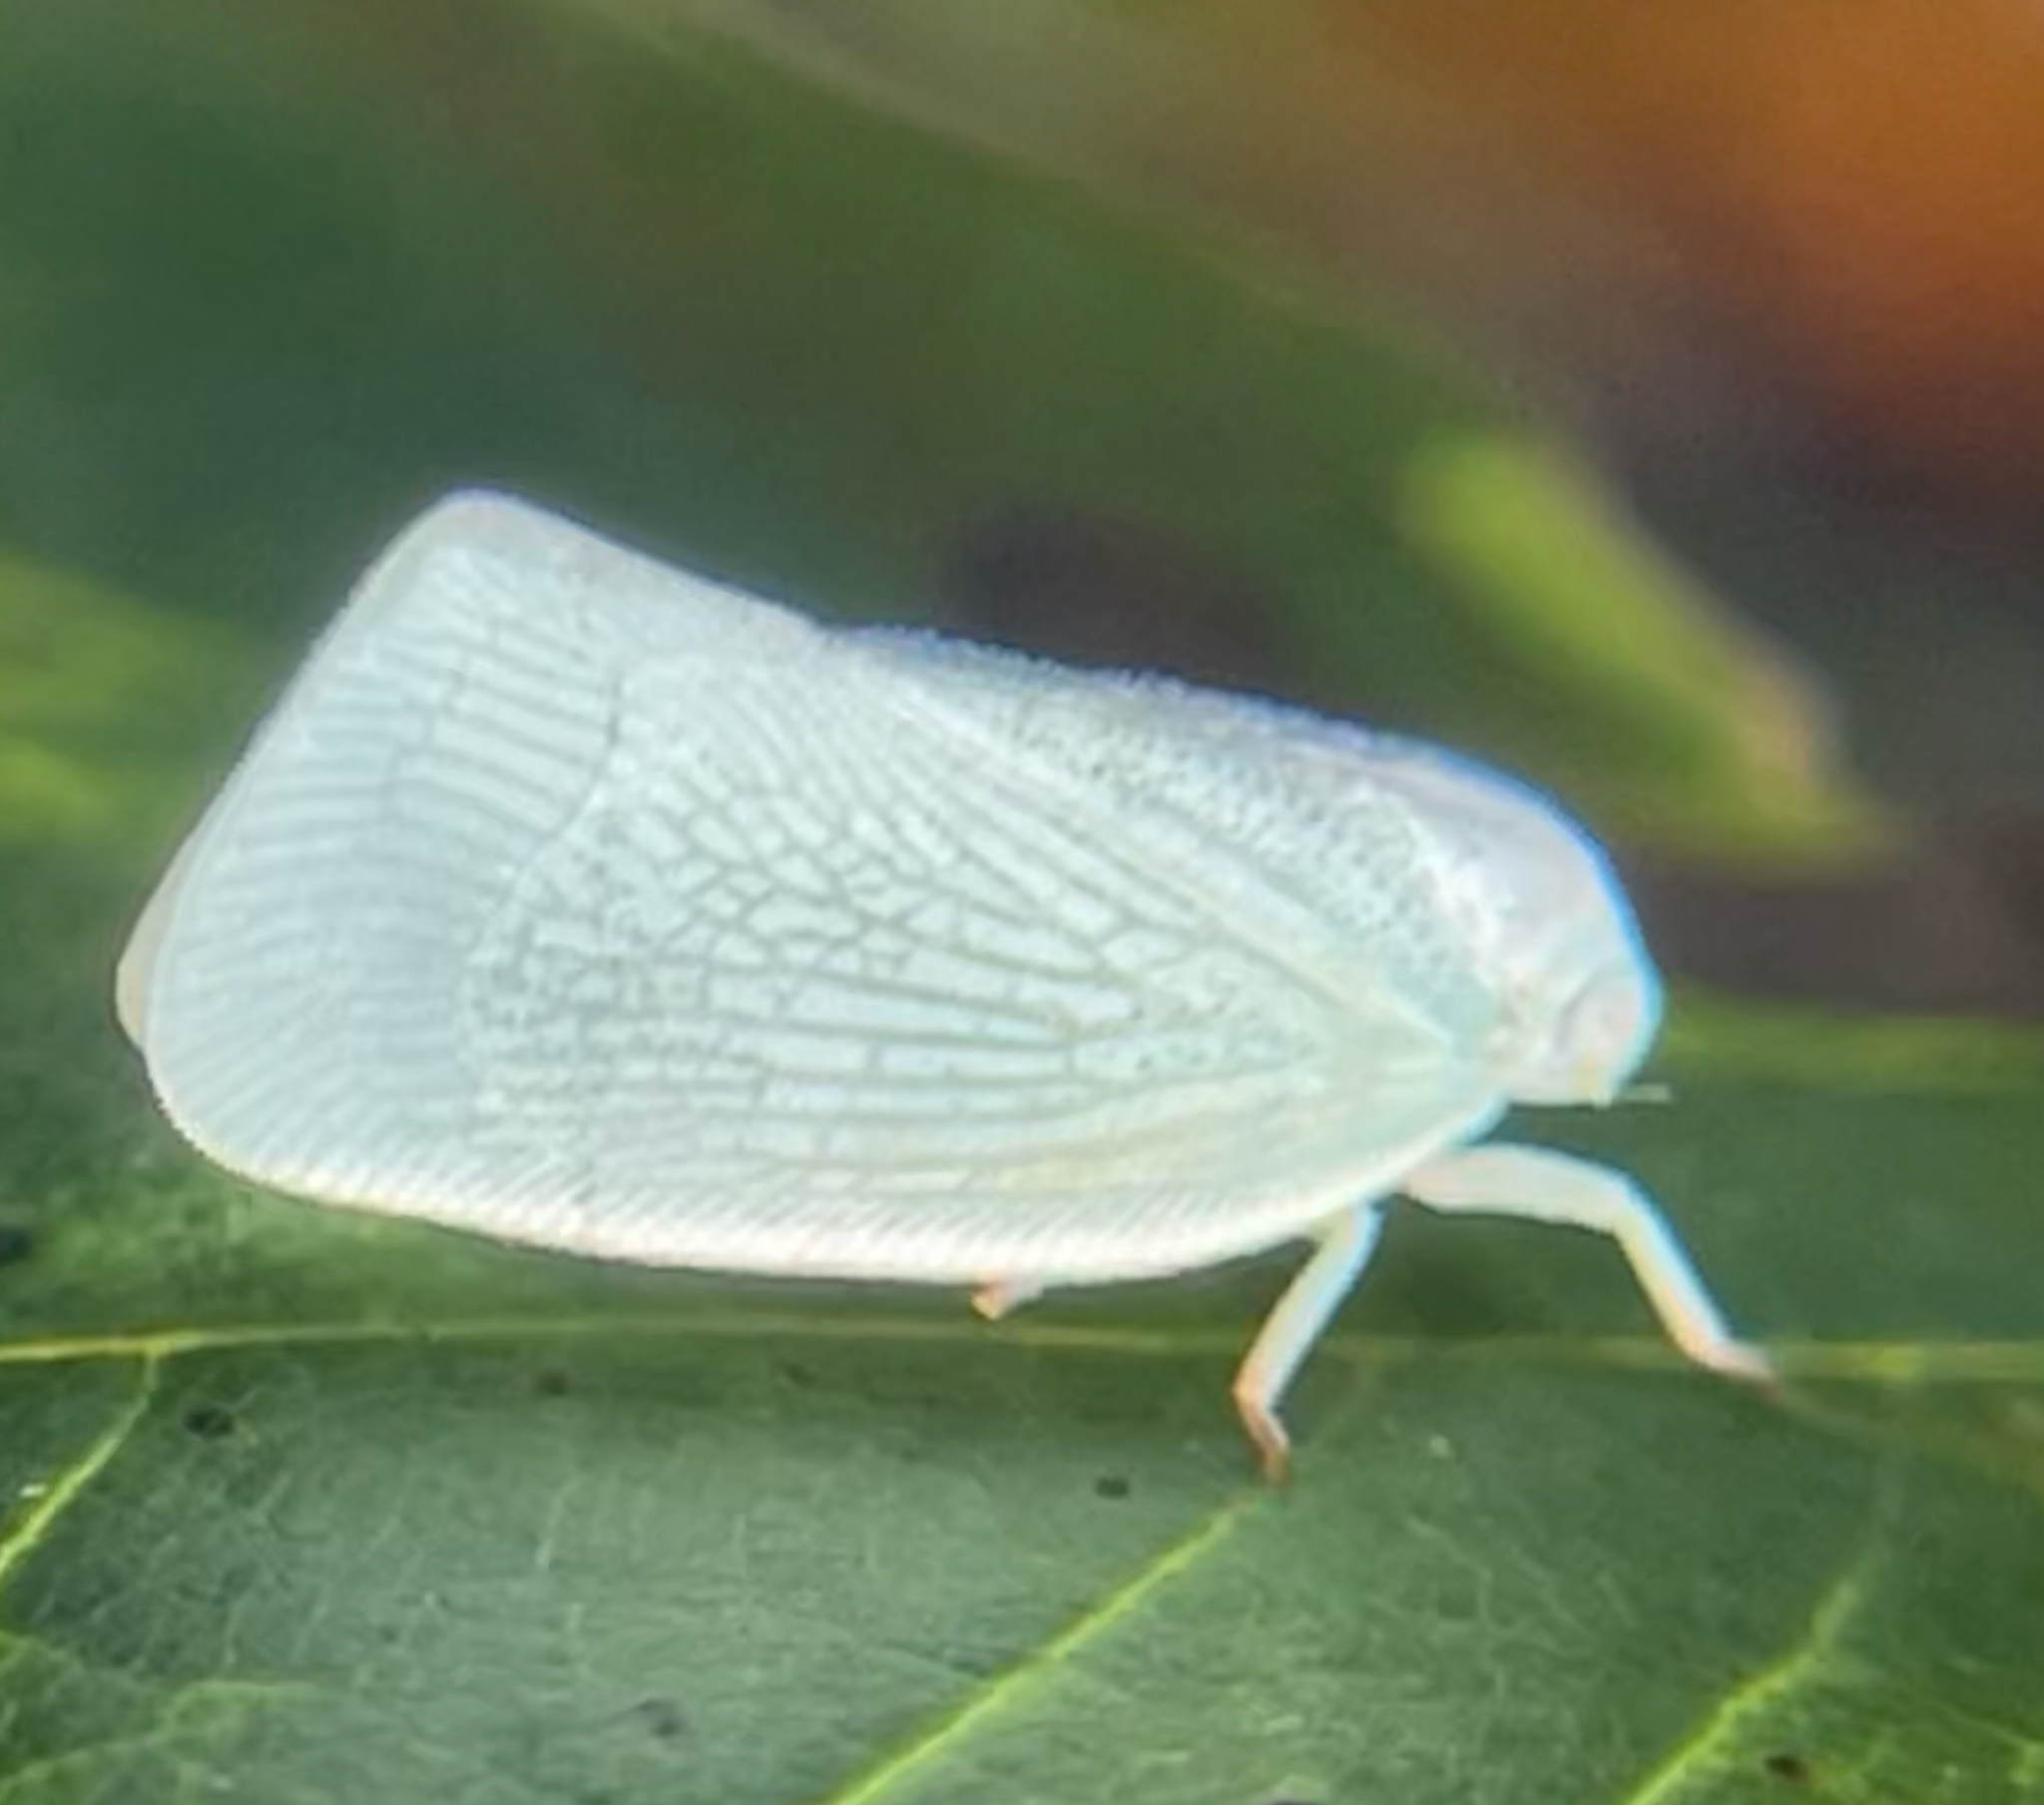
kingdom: Animalia
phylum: Arthropoda
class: Insecta
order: Hemiptera
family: Flatidae
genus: Flatormenis
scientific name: Flatormenis proxima
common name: Northern flatid planthopper
